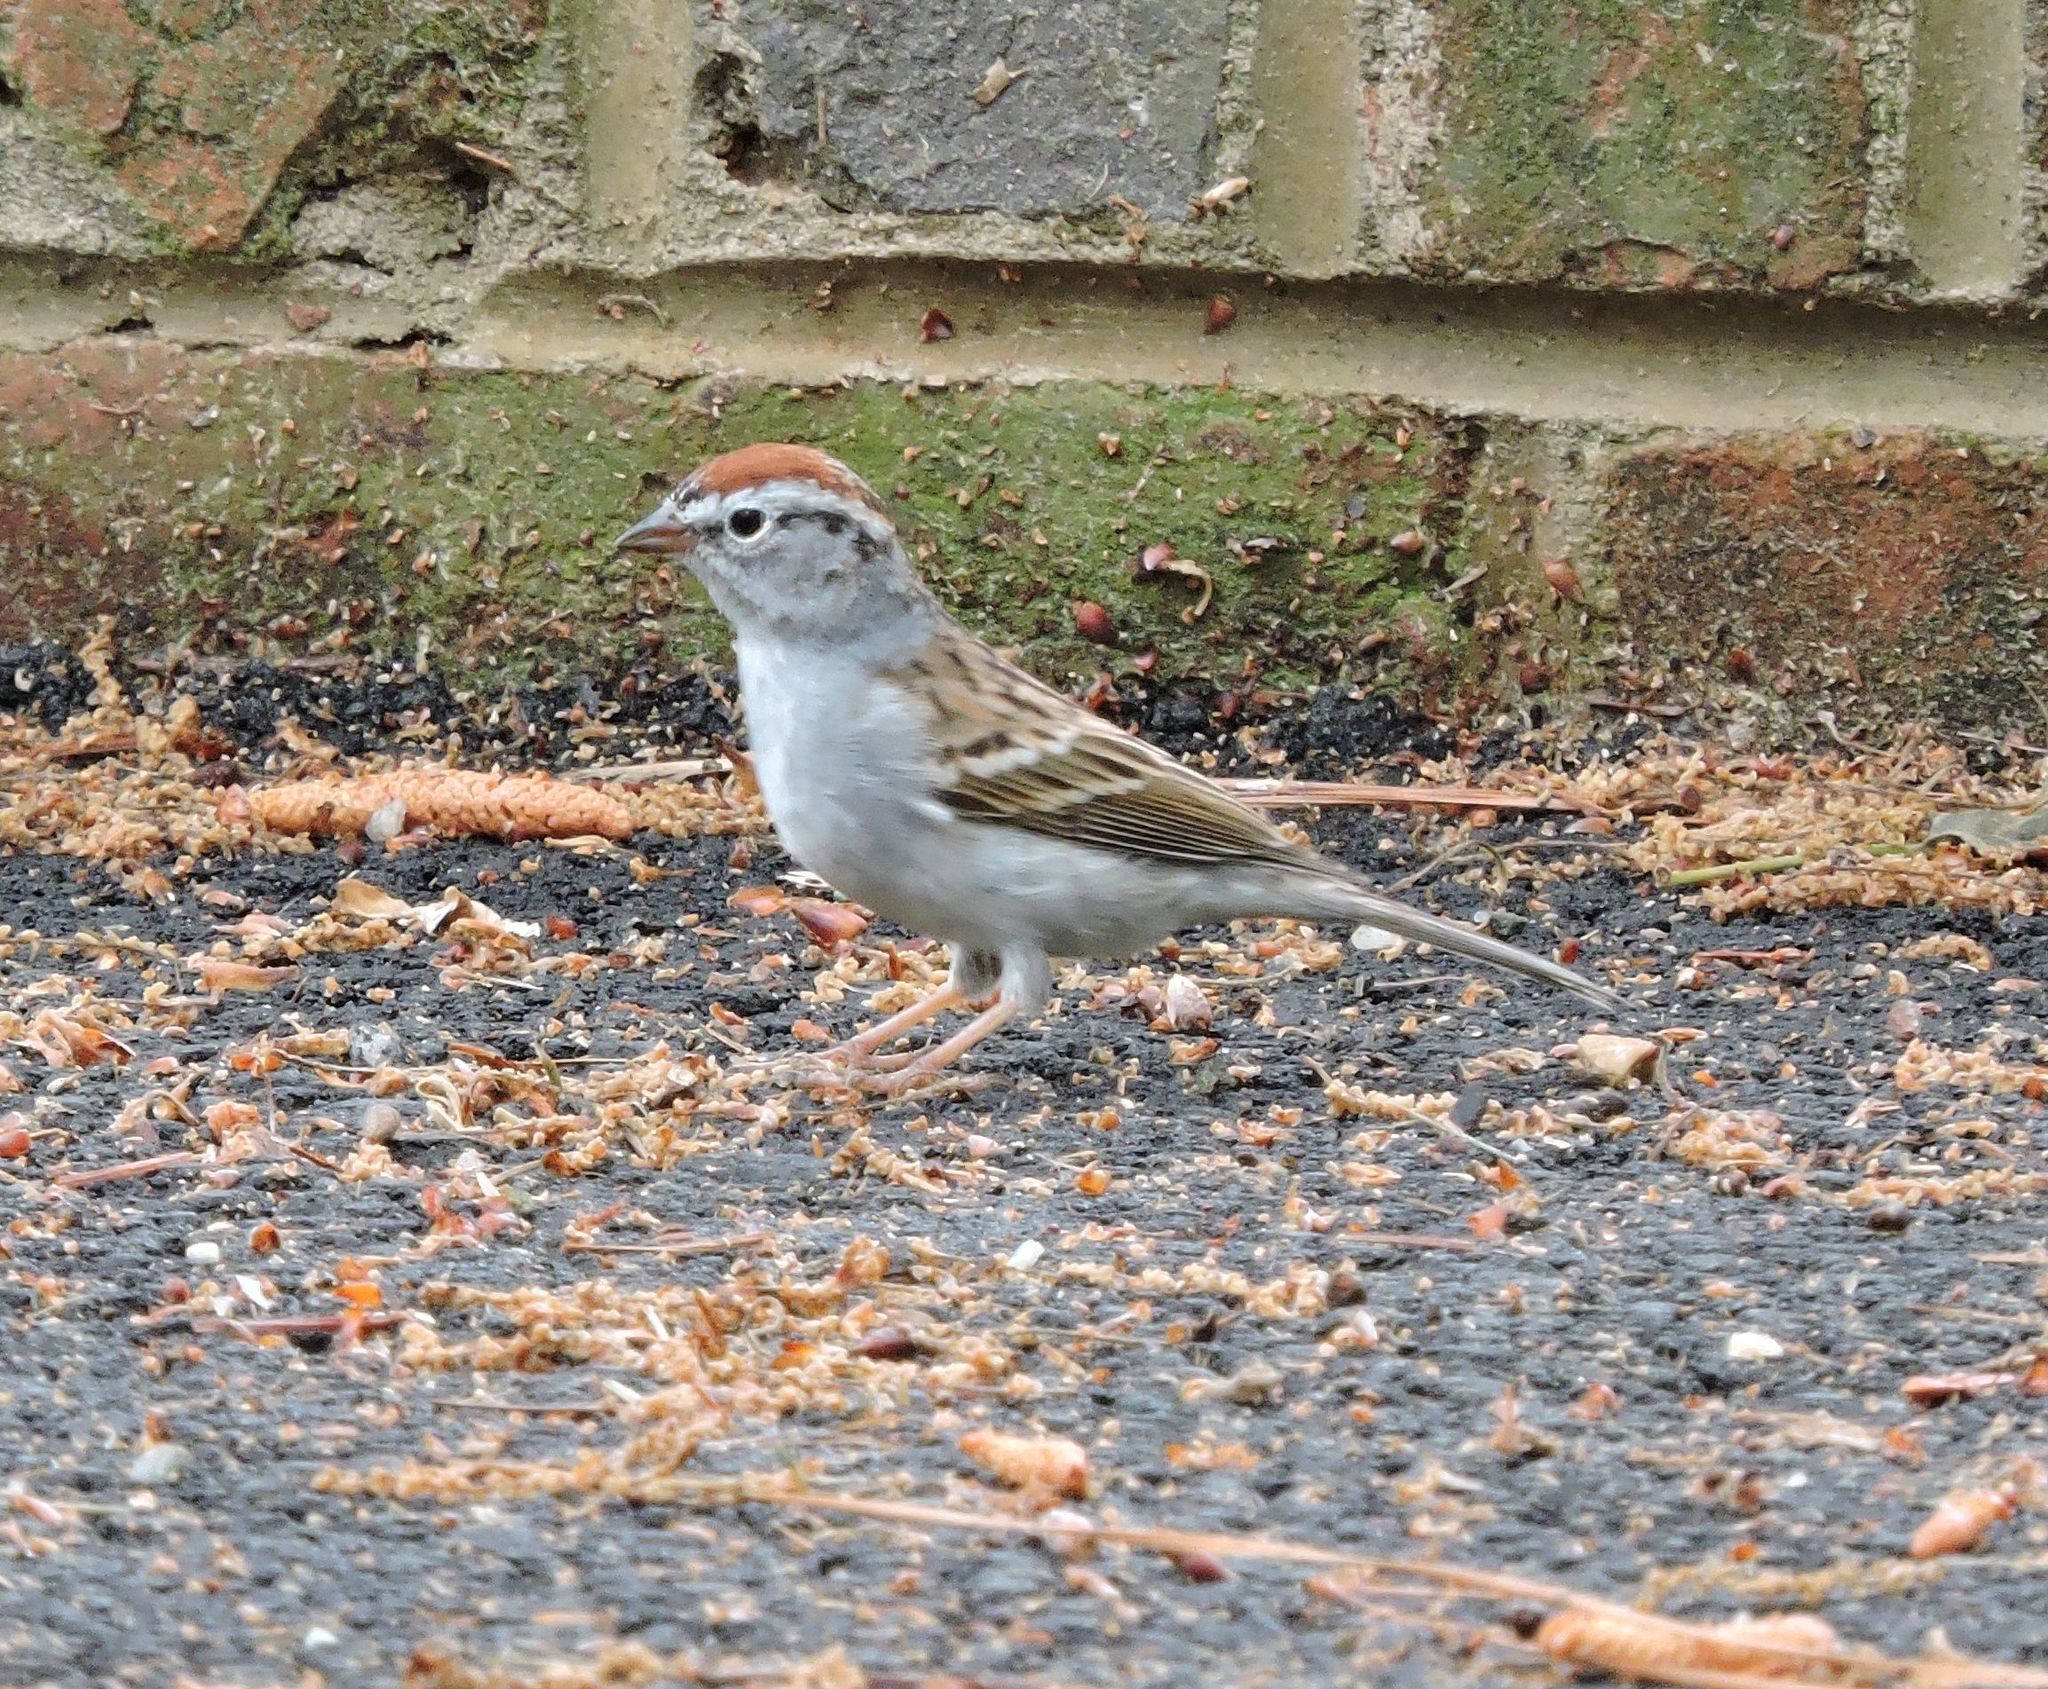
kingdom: Animalia
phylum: Chordata
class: Aves
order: Passeriformes
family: Passerellidae
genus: Spizella
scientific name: Spizella passerina
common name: Chipping sparrow
